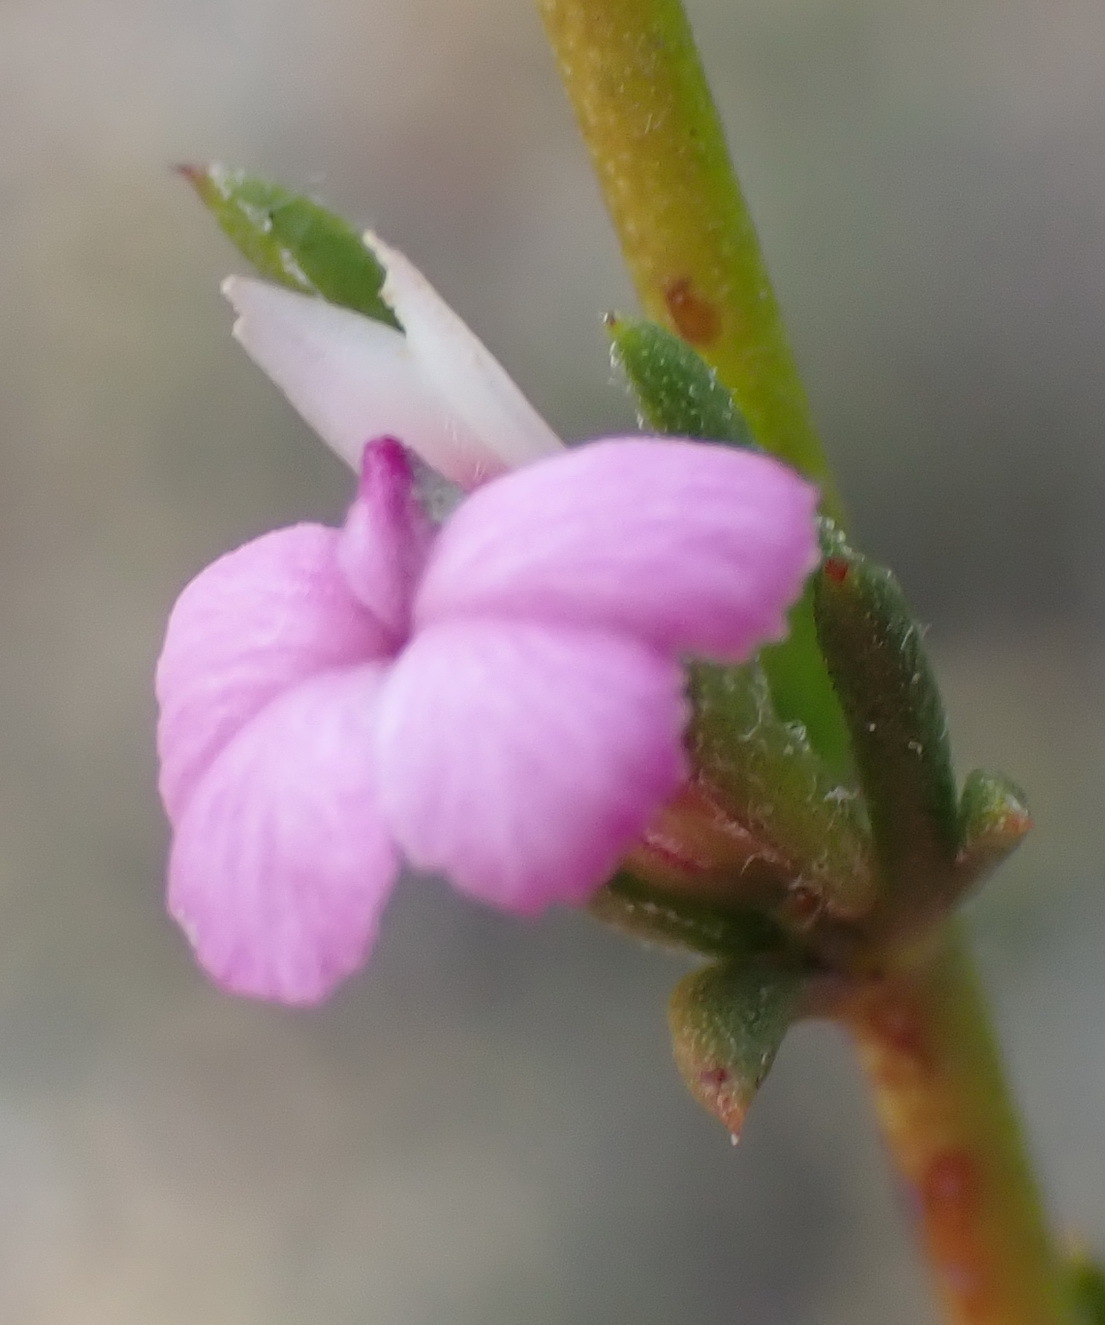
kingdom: Plantae
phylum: Tracheophyta
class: Magnoliopsida
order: Fabales
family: Polygalaceae
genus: Muraltia
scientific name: Muraltia dispersa
